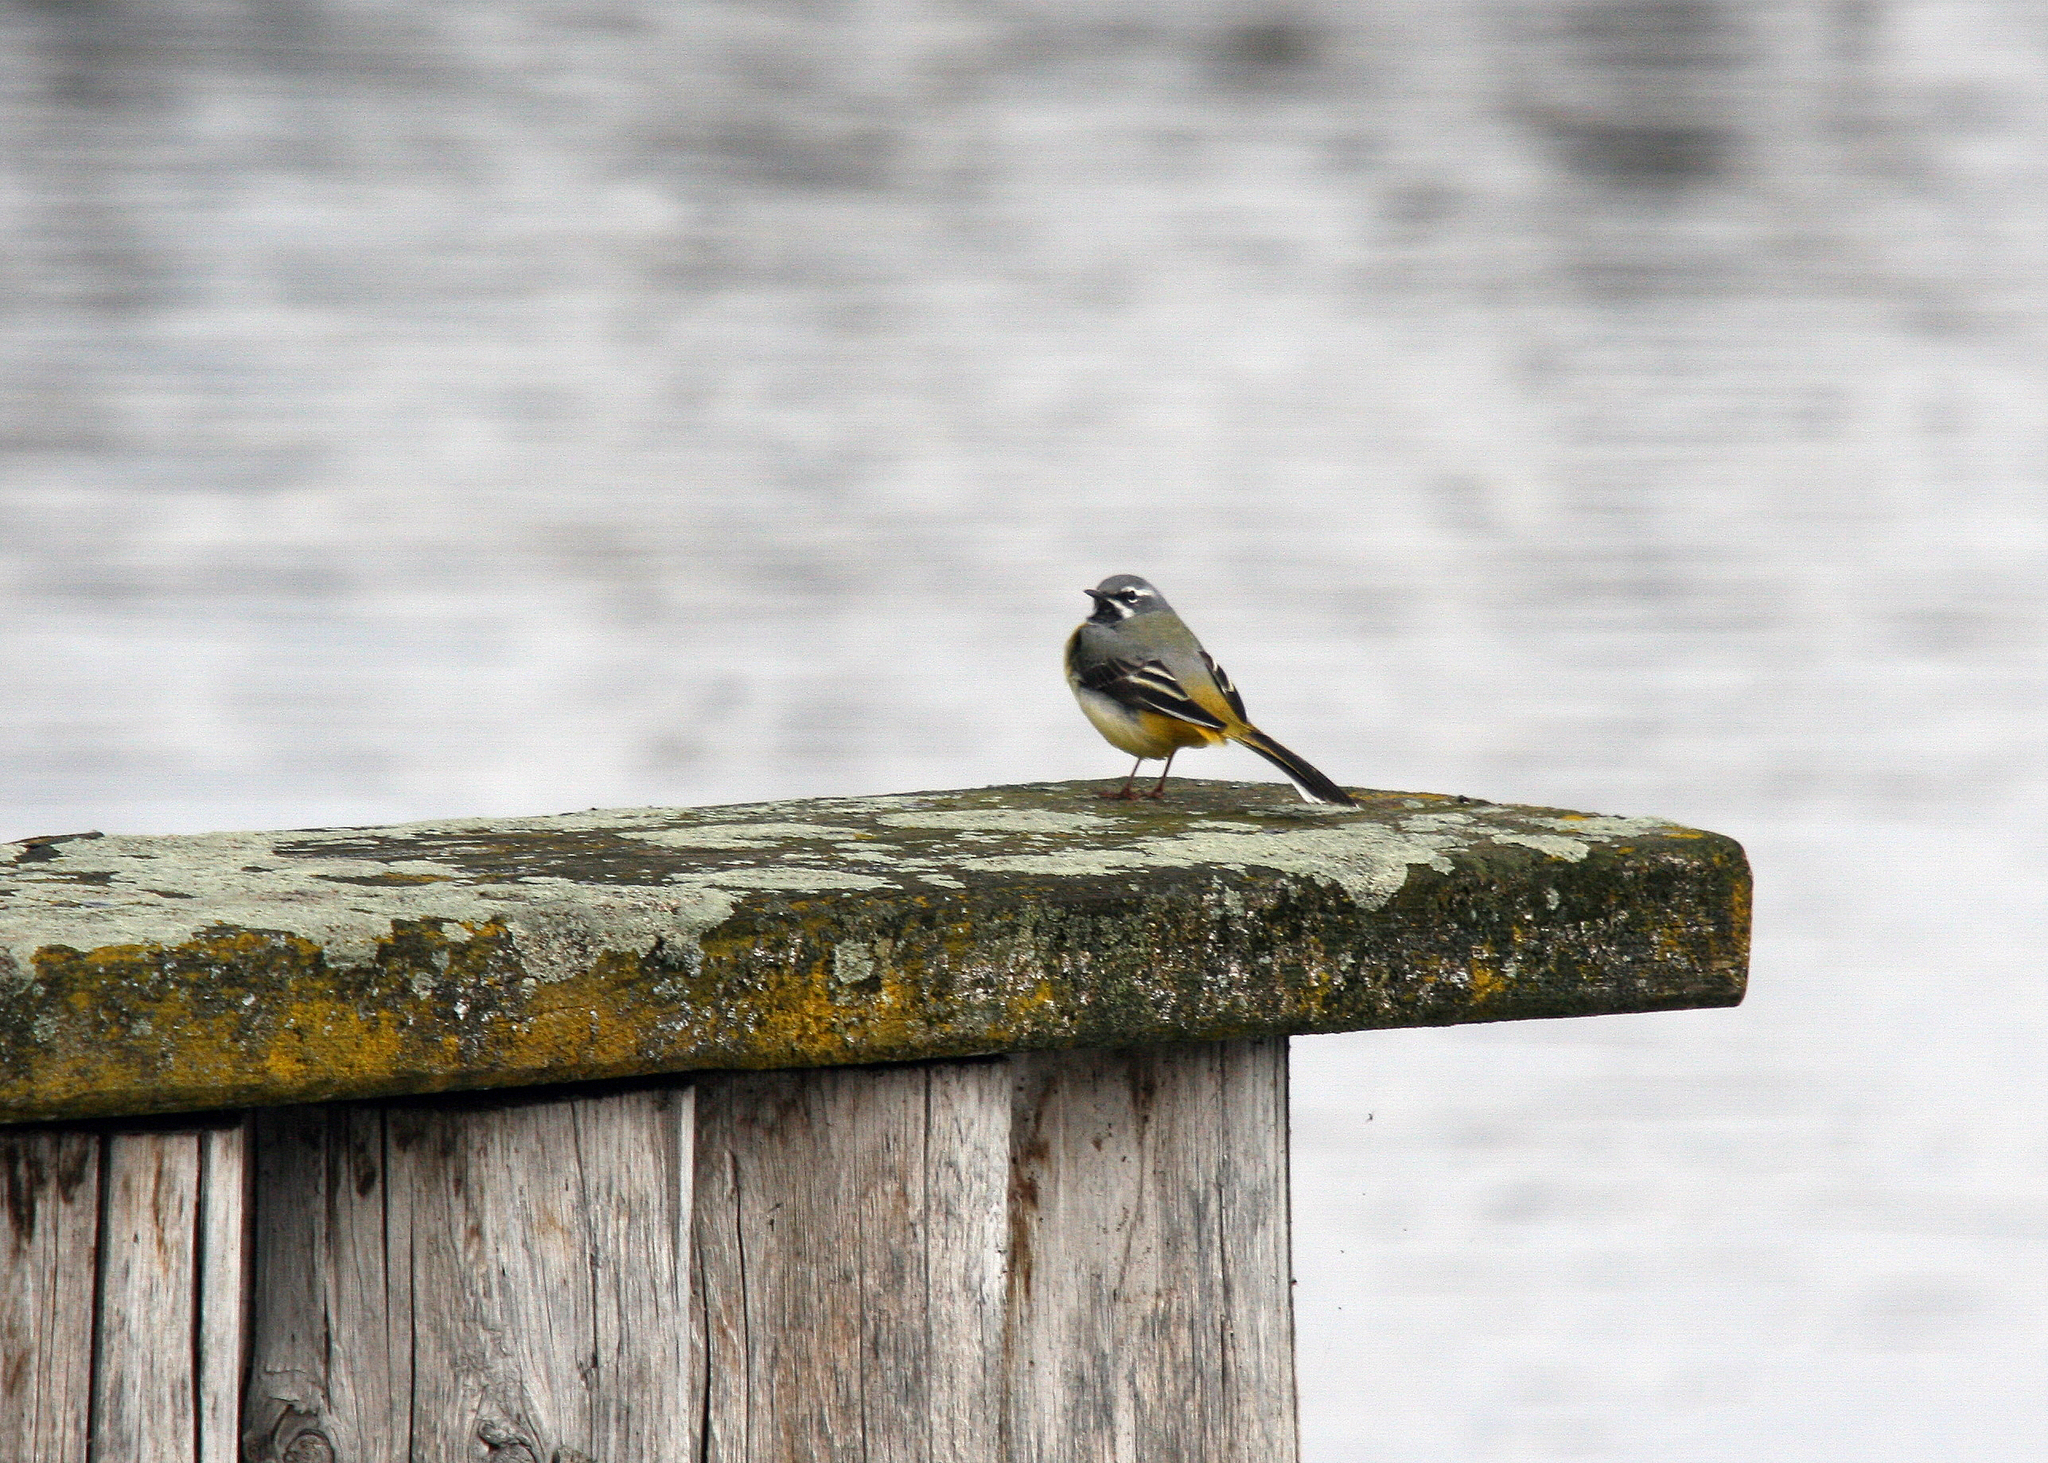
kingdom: Animalia
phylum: Chordata
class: Aves
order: Passeriformes
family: Motacillidae
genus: Motacilla
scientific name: Motacilla cinerea
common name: Grey wagtail
